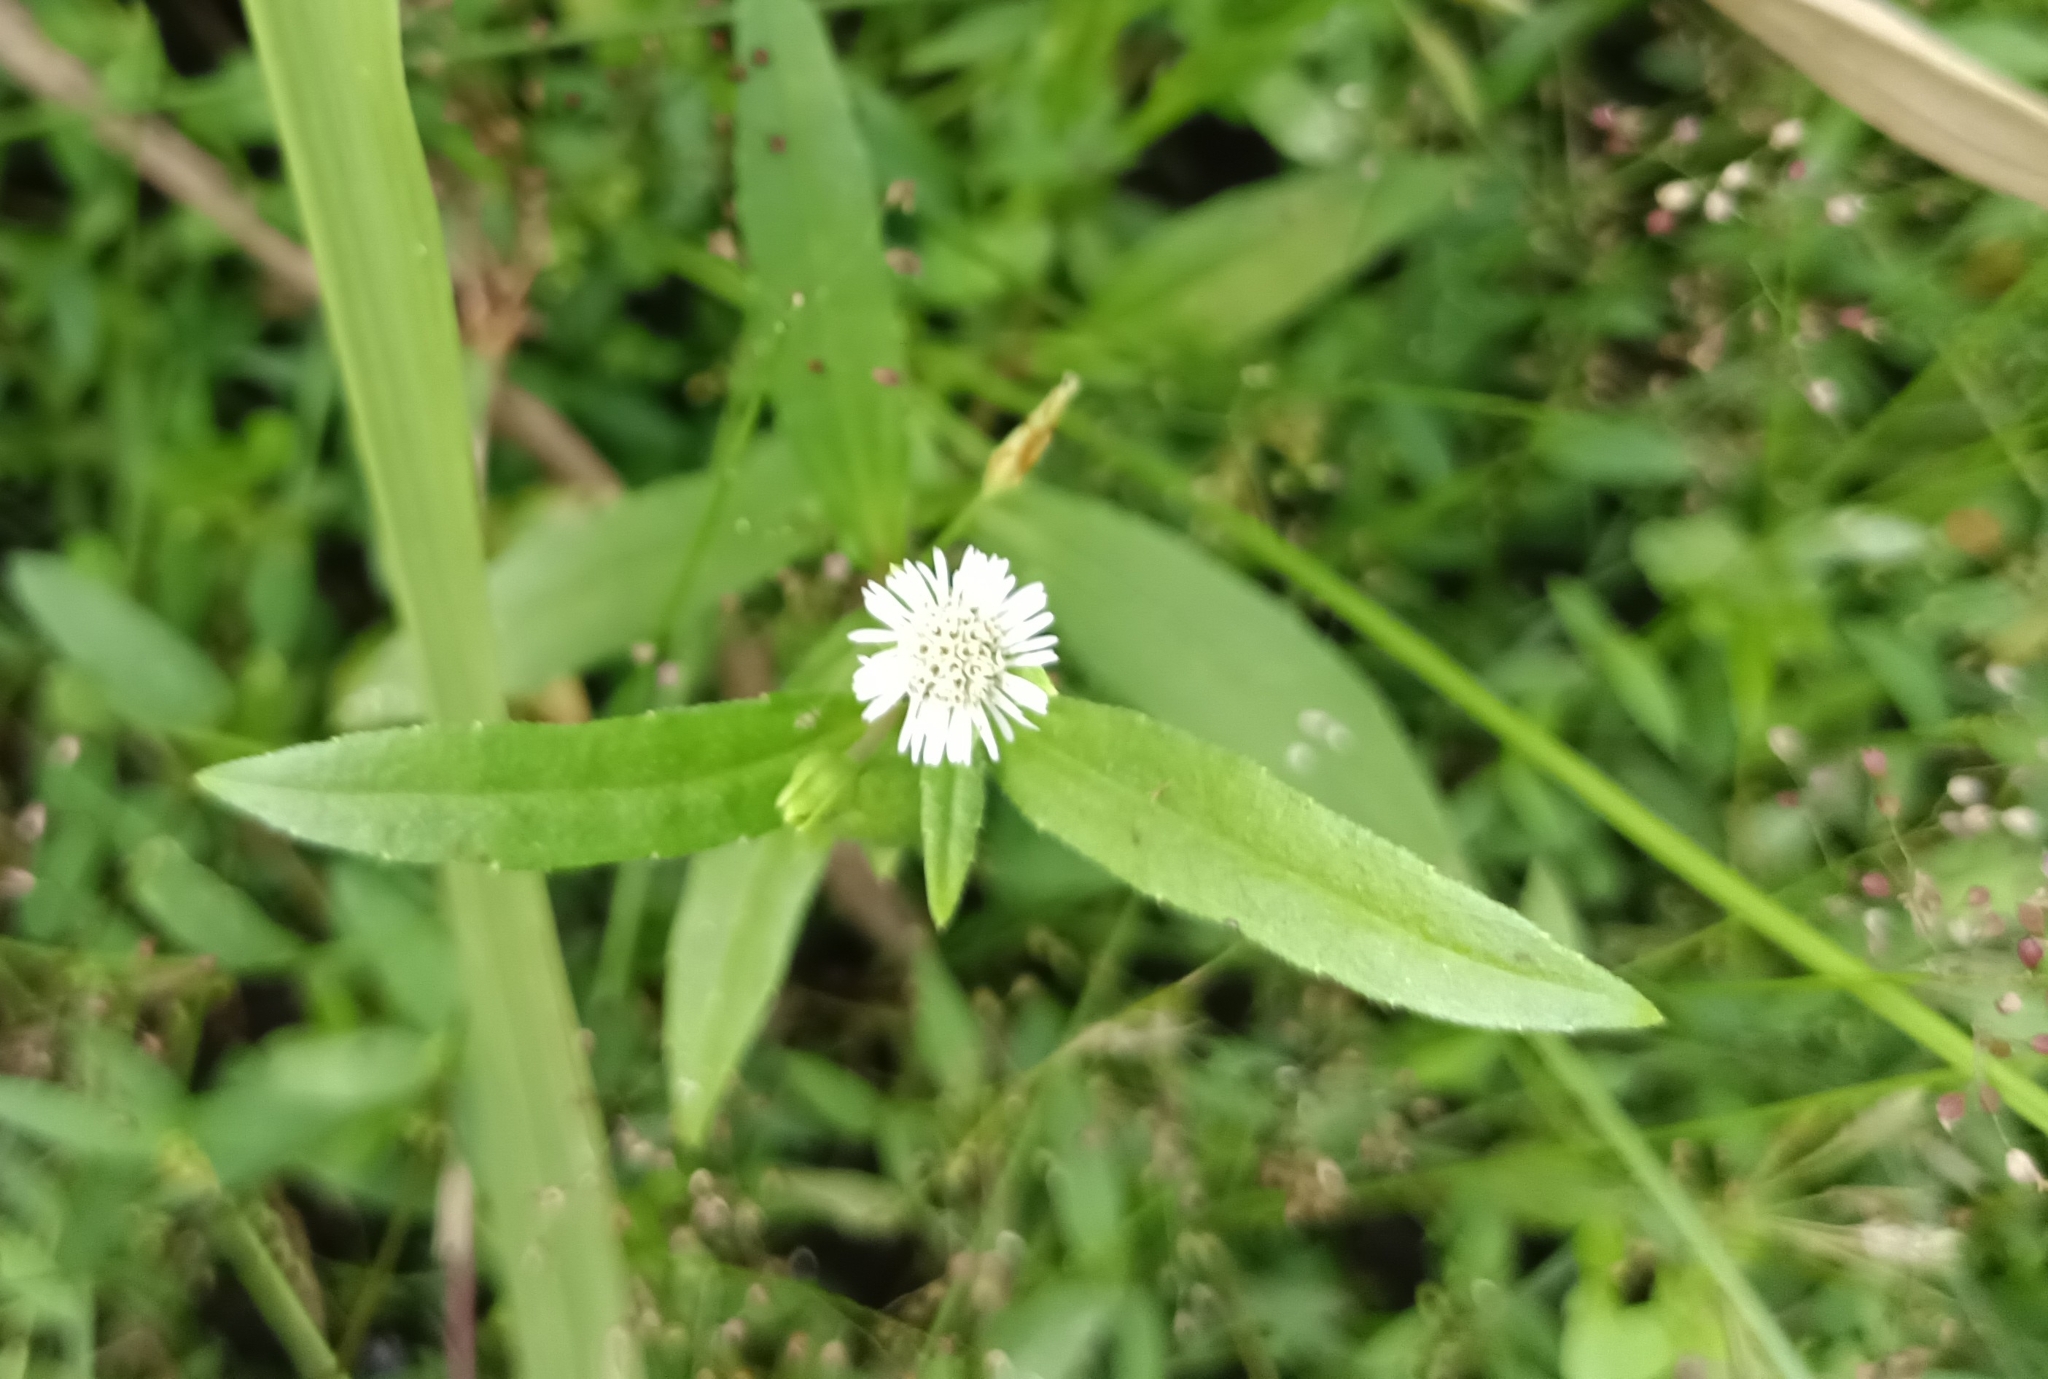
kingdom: Plantae
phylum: Tracheophyta
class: Magnoliopsida
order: Asterales
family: Asteraceae
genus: Eclipta
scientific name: Eclipta prostrata
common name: False daisy
